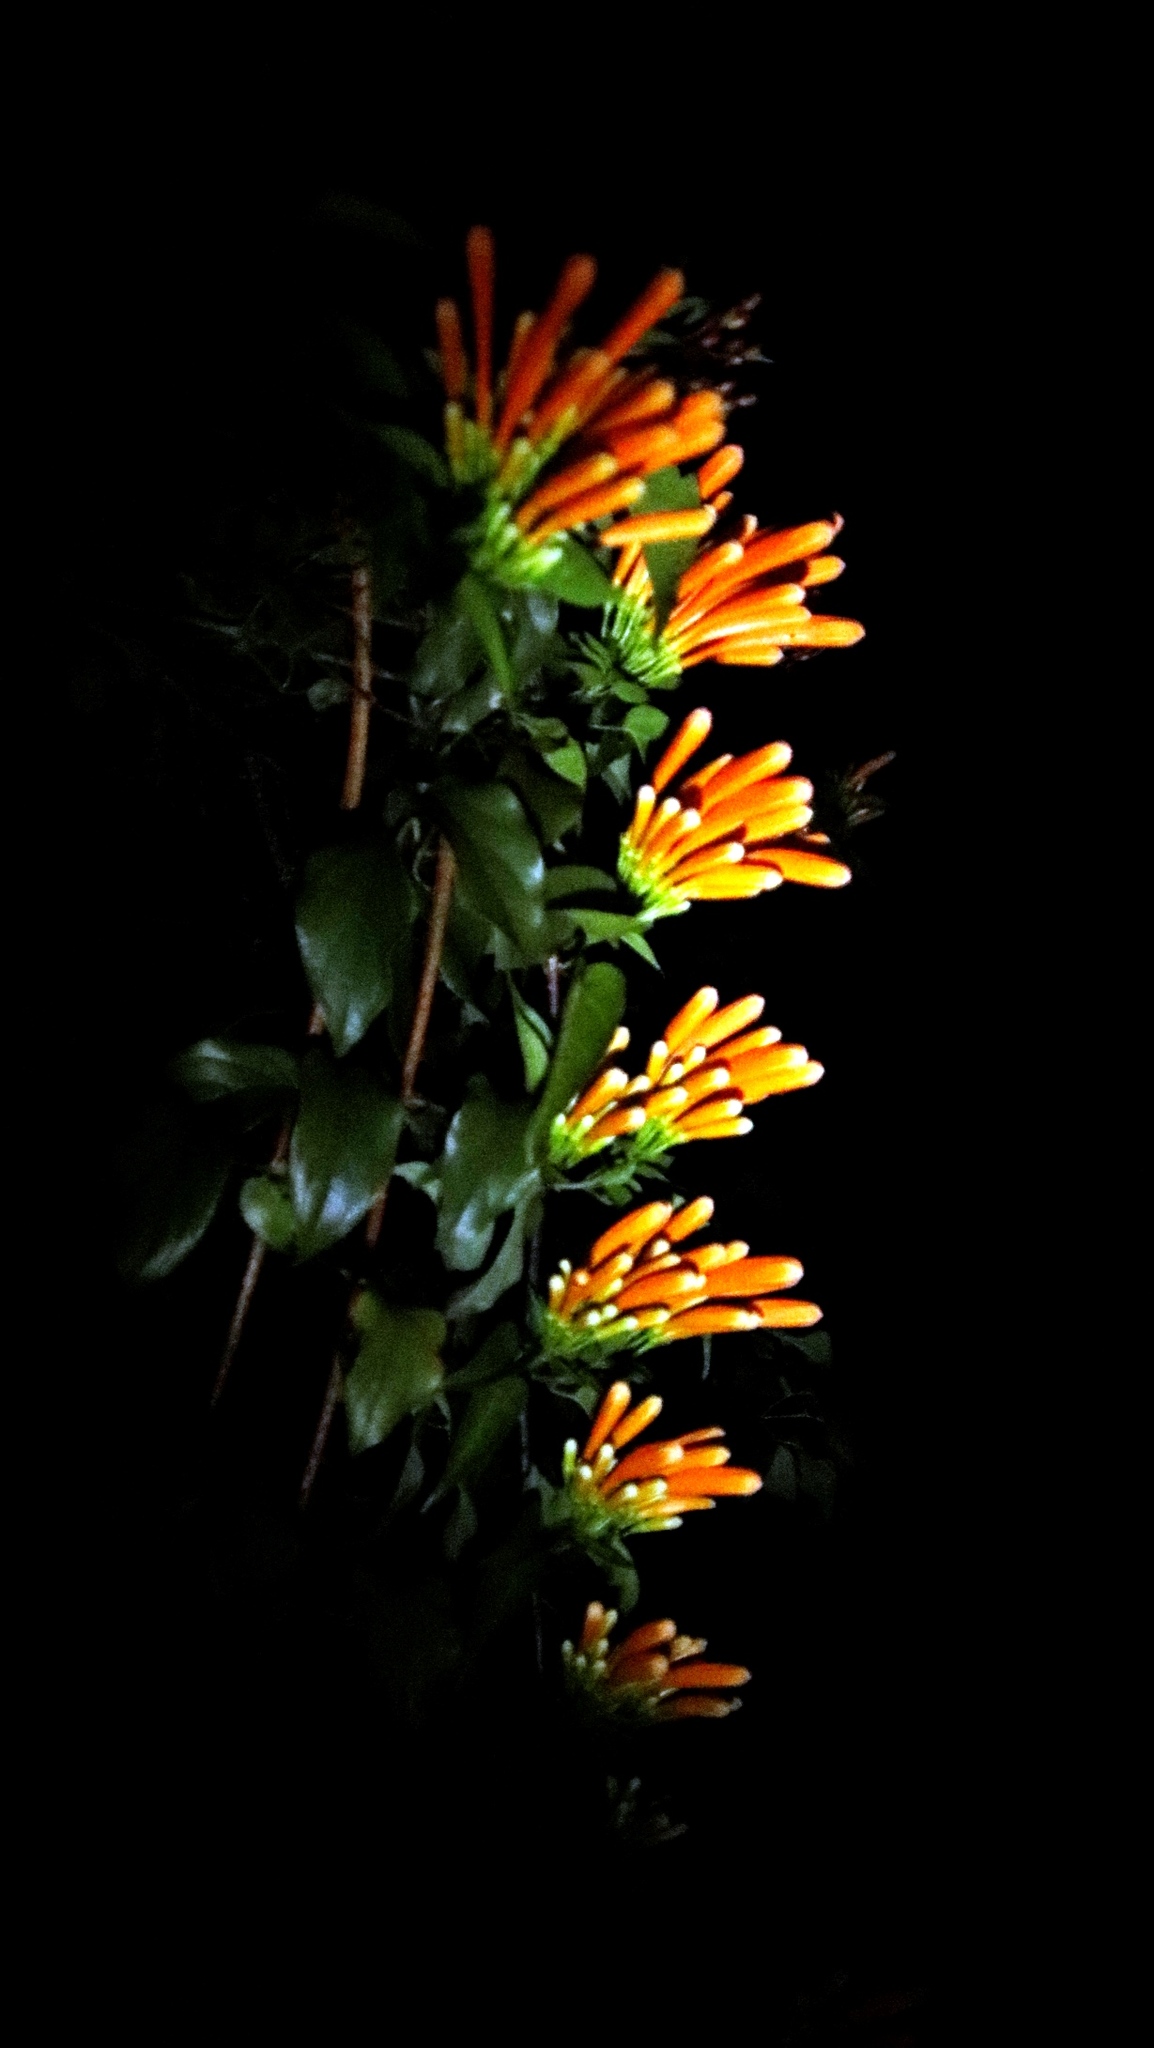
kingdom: Plantae
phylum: Tracheophyta
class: Magnoliopsida
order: Lamiales
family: Bignoniaceae
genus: Pyrostegia
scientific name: Pyrostegia venusta
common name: Flamevine
